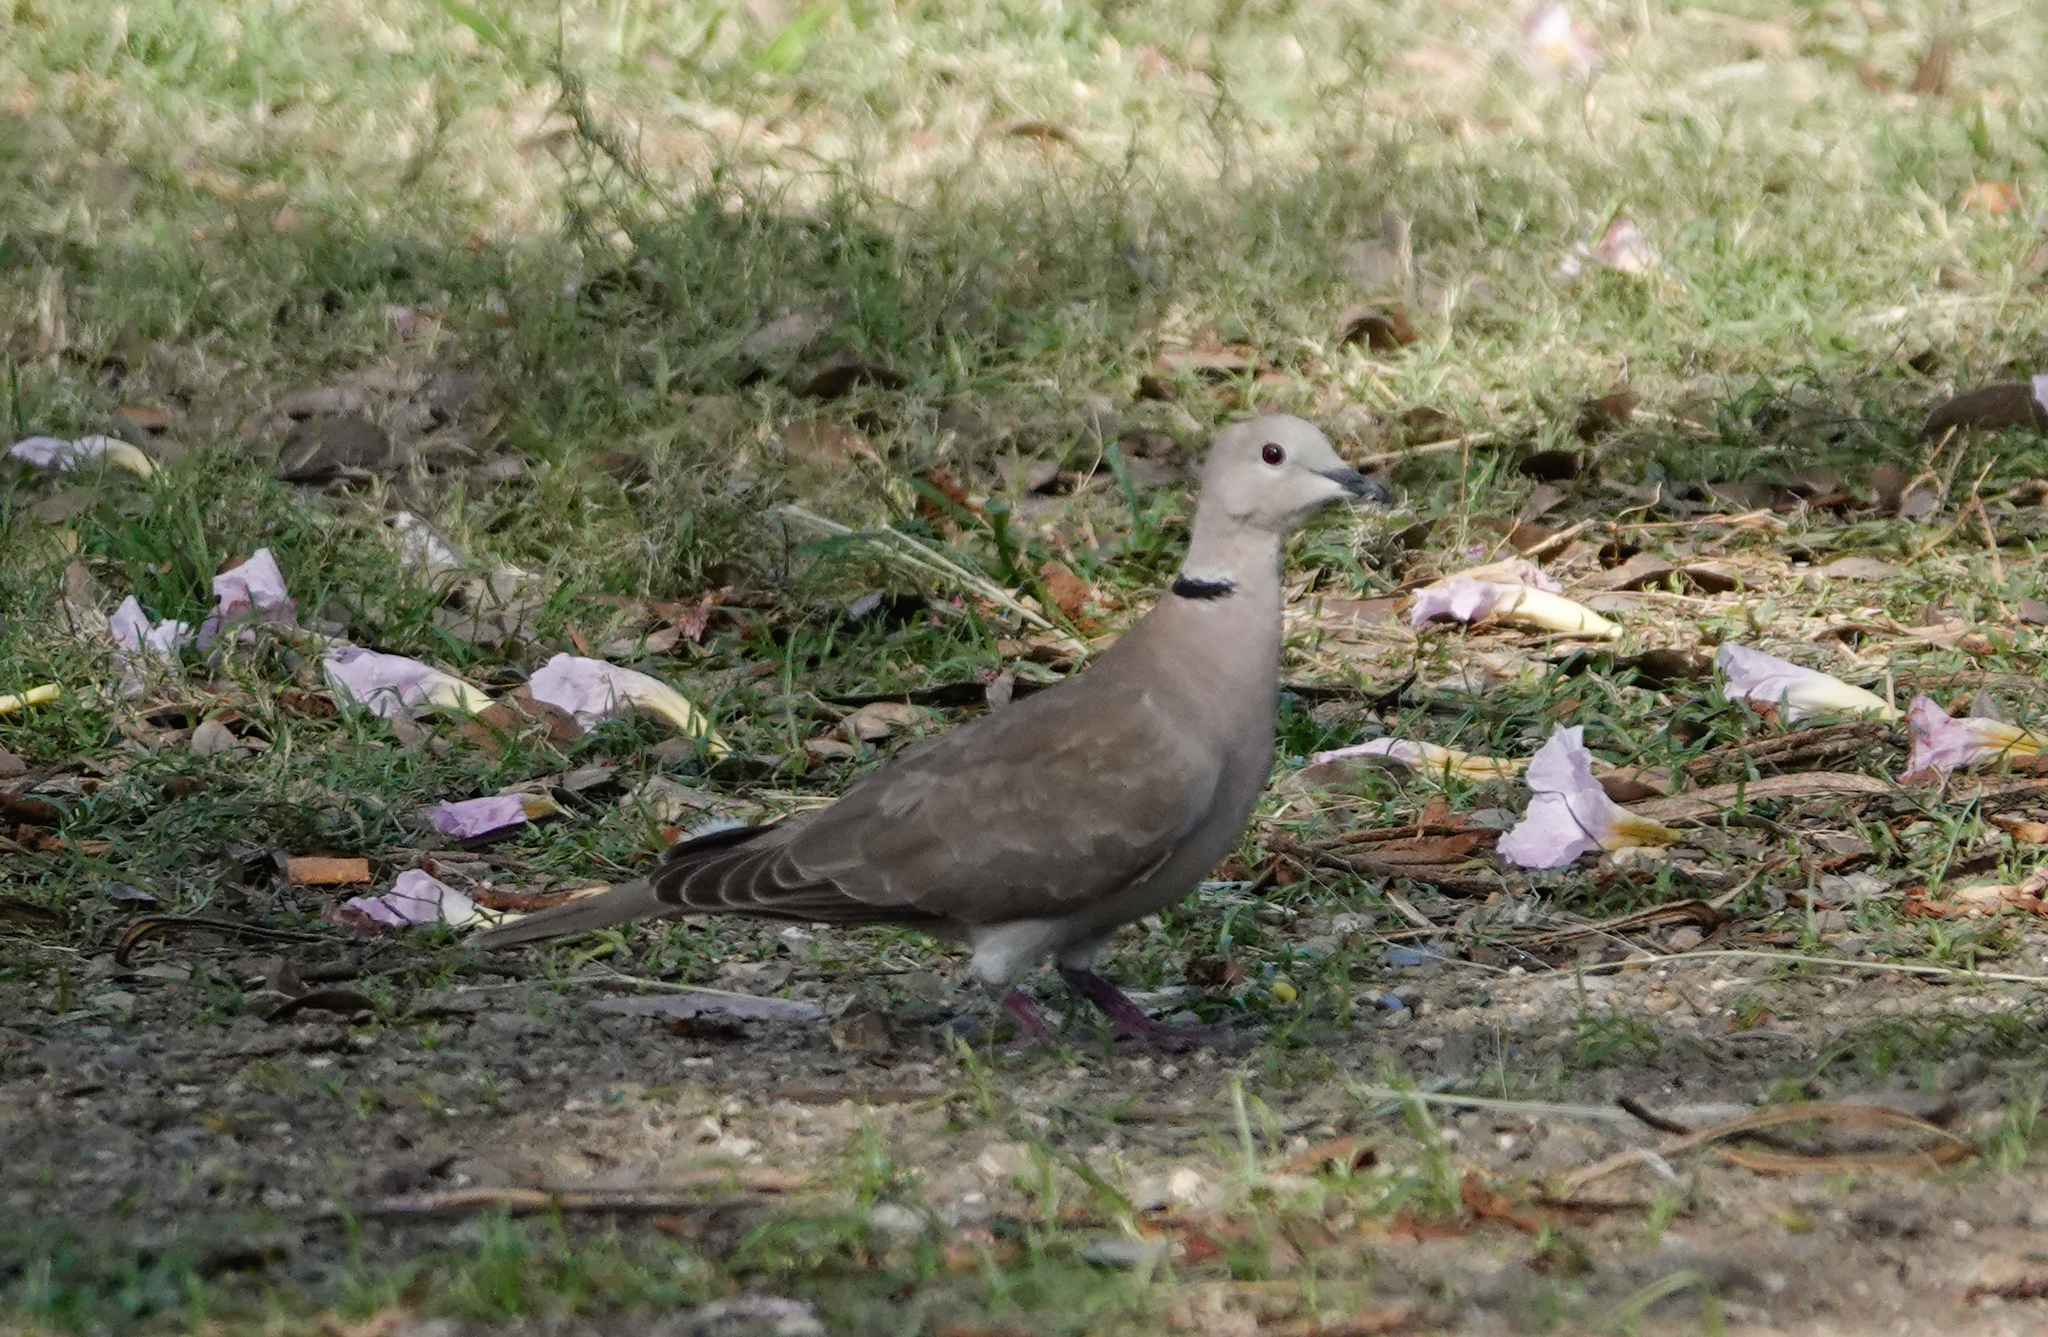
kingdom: Animalia
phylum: Chordata
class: Aves
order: Columbiformes
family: Columbidae
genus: Streptopelia
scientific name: Streptopelia
